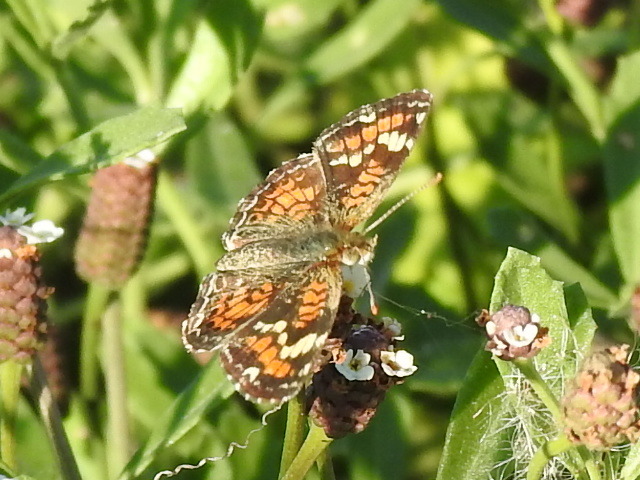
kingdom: Animalia
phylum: Arthropoda
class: Insecta
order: Lepidoptera
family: Nymphalidae
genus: Phyciodes
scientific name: Phyciodes phaon
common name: Phaon crescent
